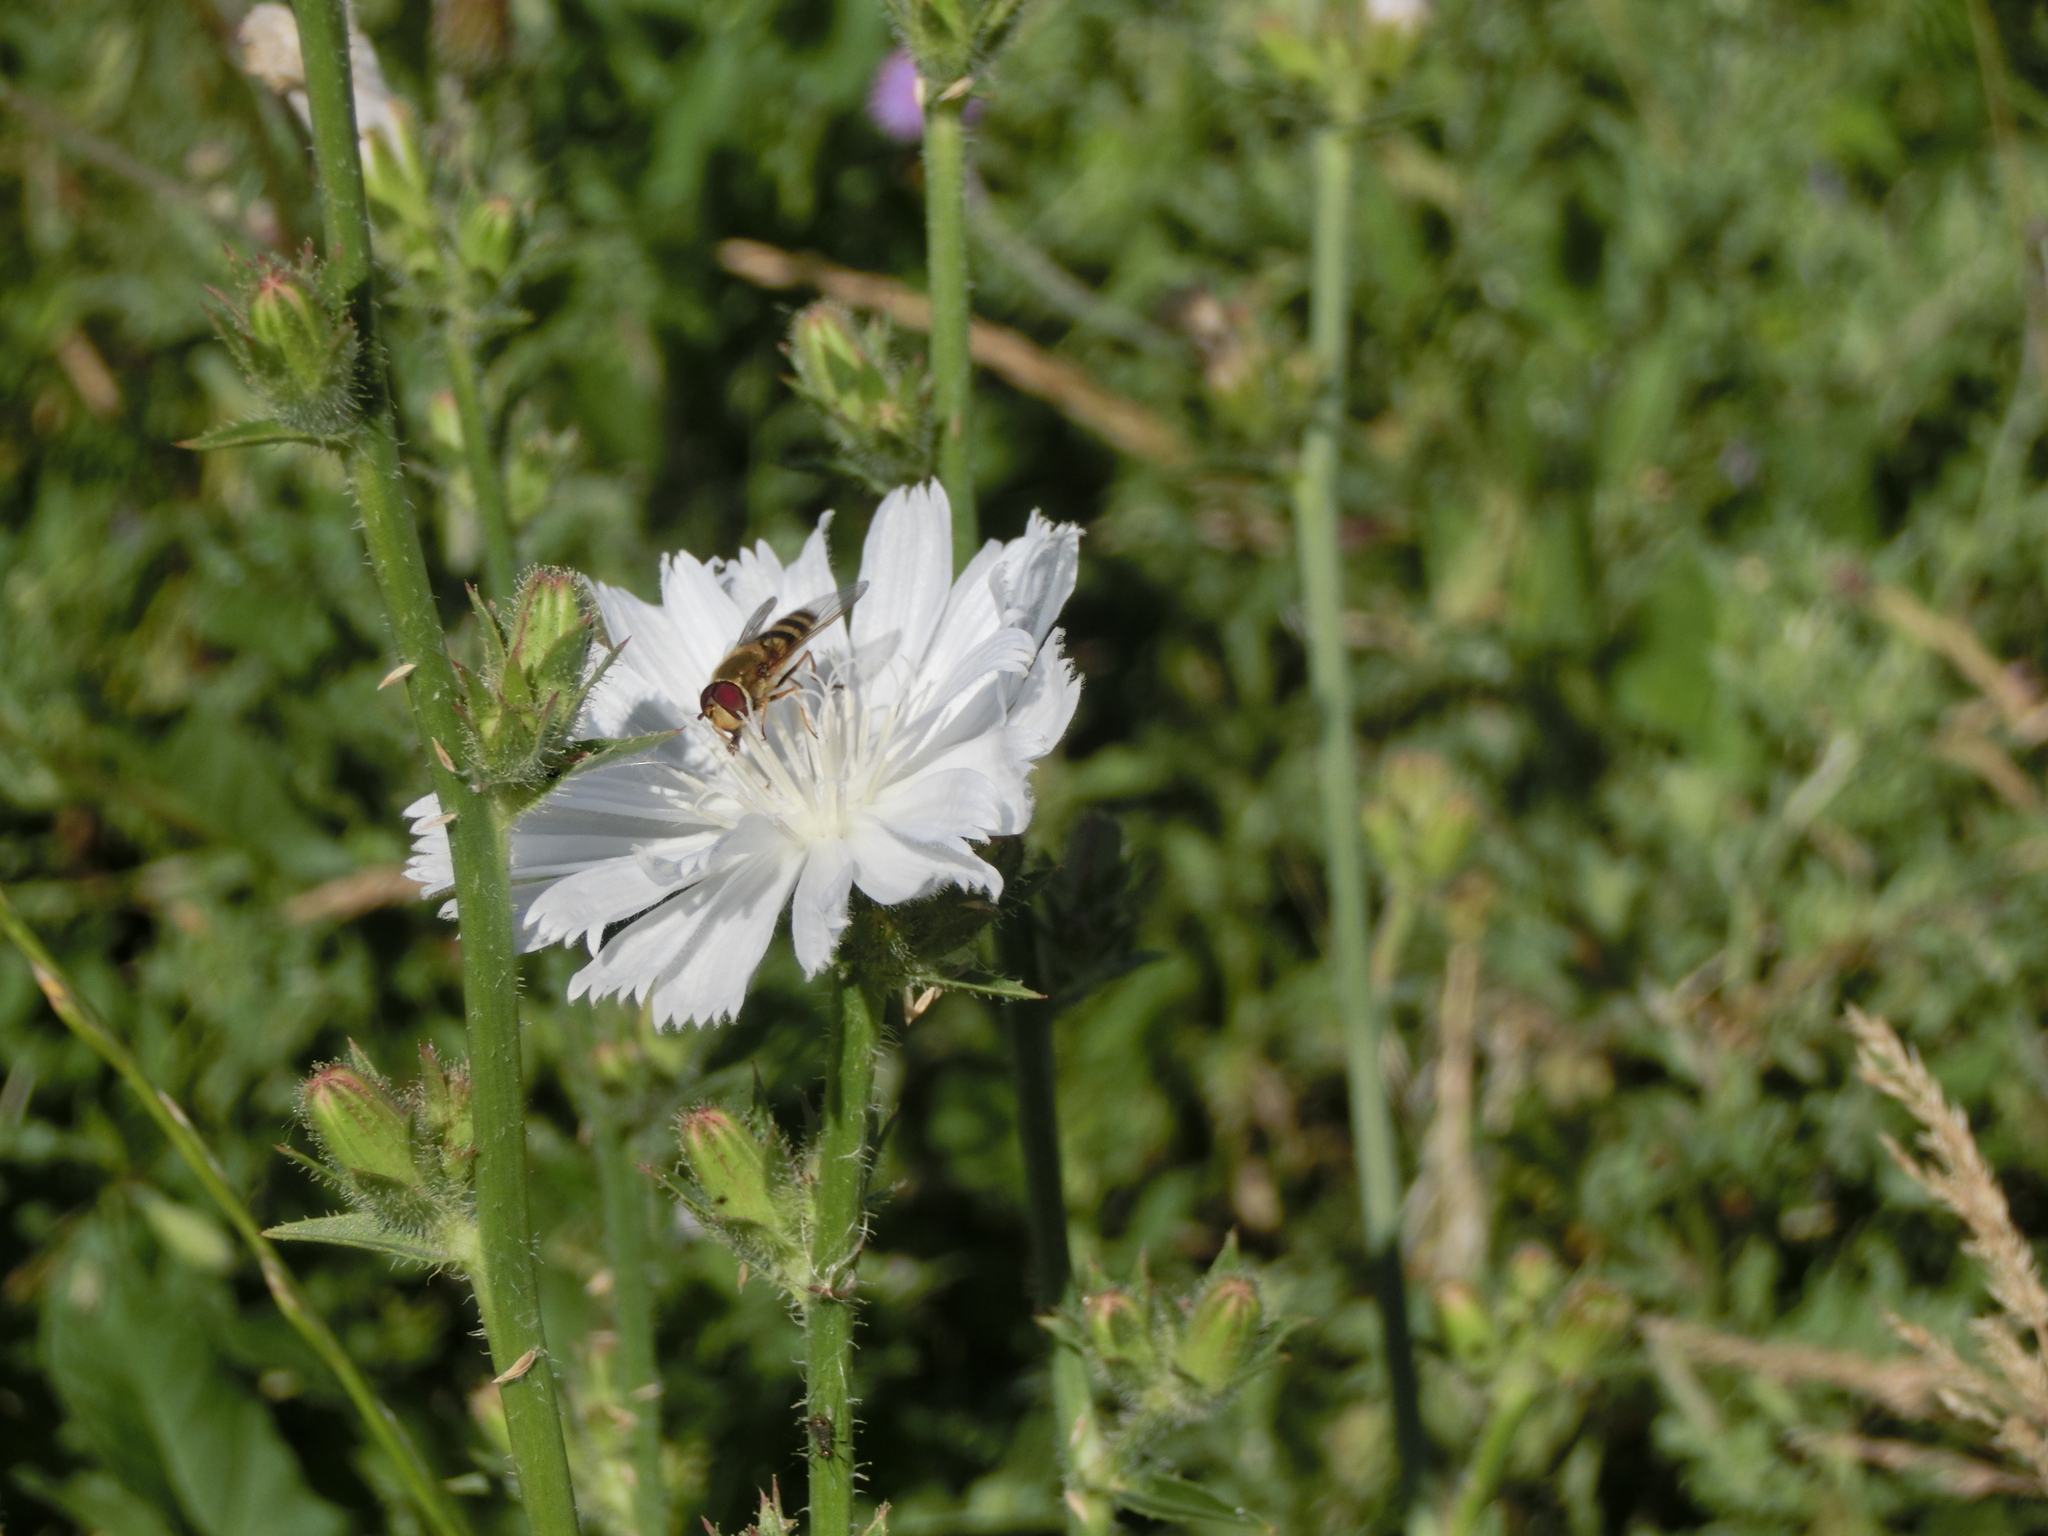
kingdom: Animalia
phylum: Arthropoda
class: Insecta
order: Diptera
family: Syrphidae
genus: Syrphus
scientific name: Syrphus
